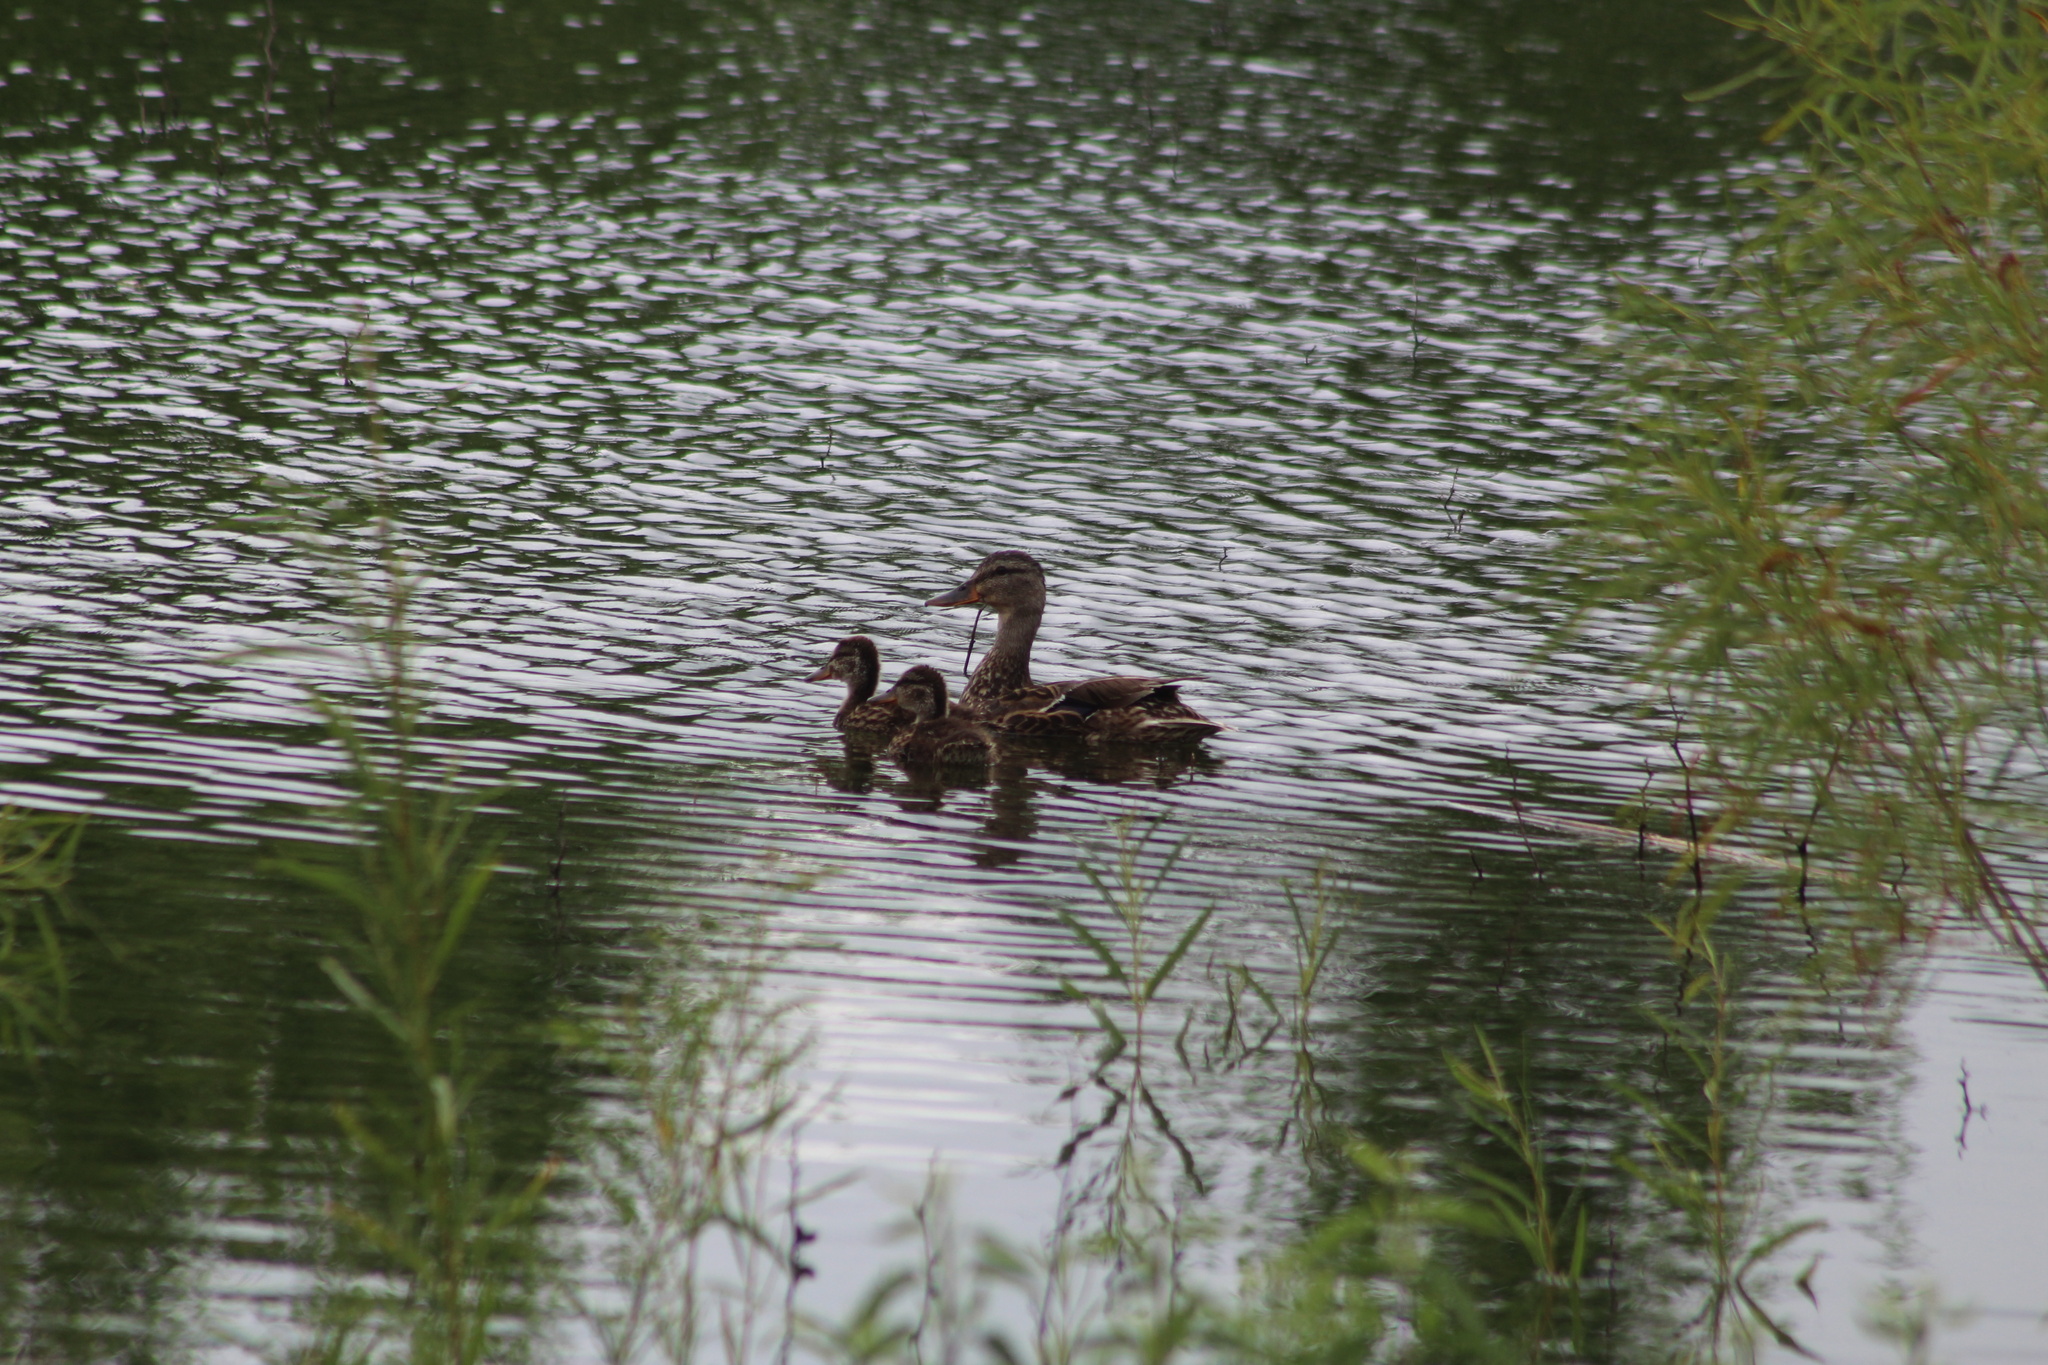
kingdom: Animalia
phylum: Chordata
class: Aves
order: Anseriformes
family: Anatidae
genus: Anas
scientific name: Anas platyrhynchos
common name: Mallard
